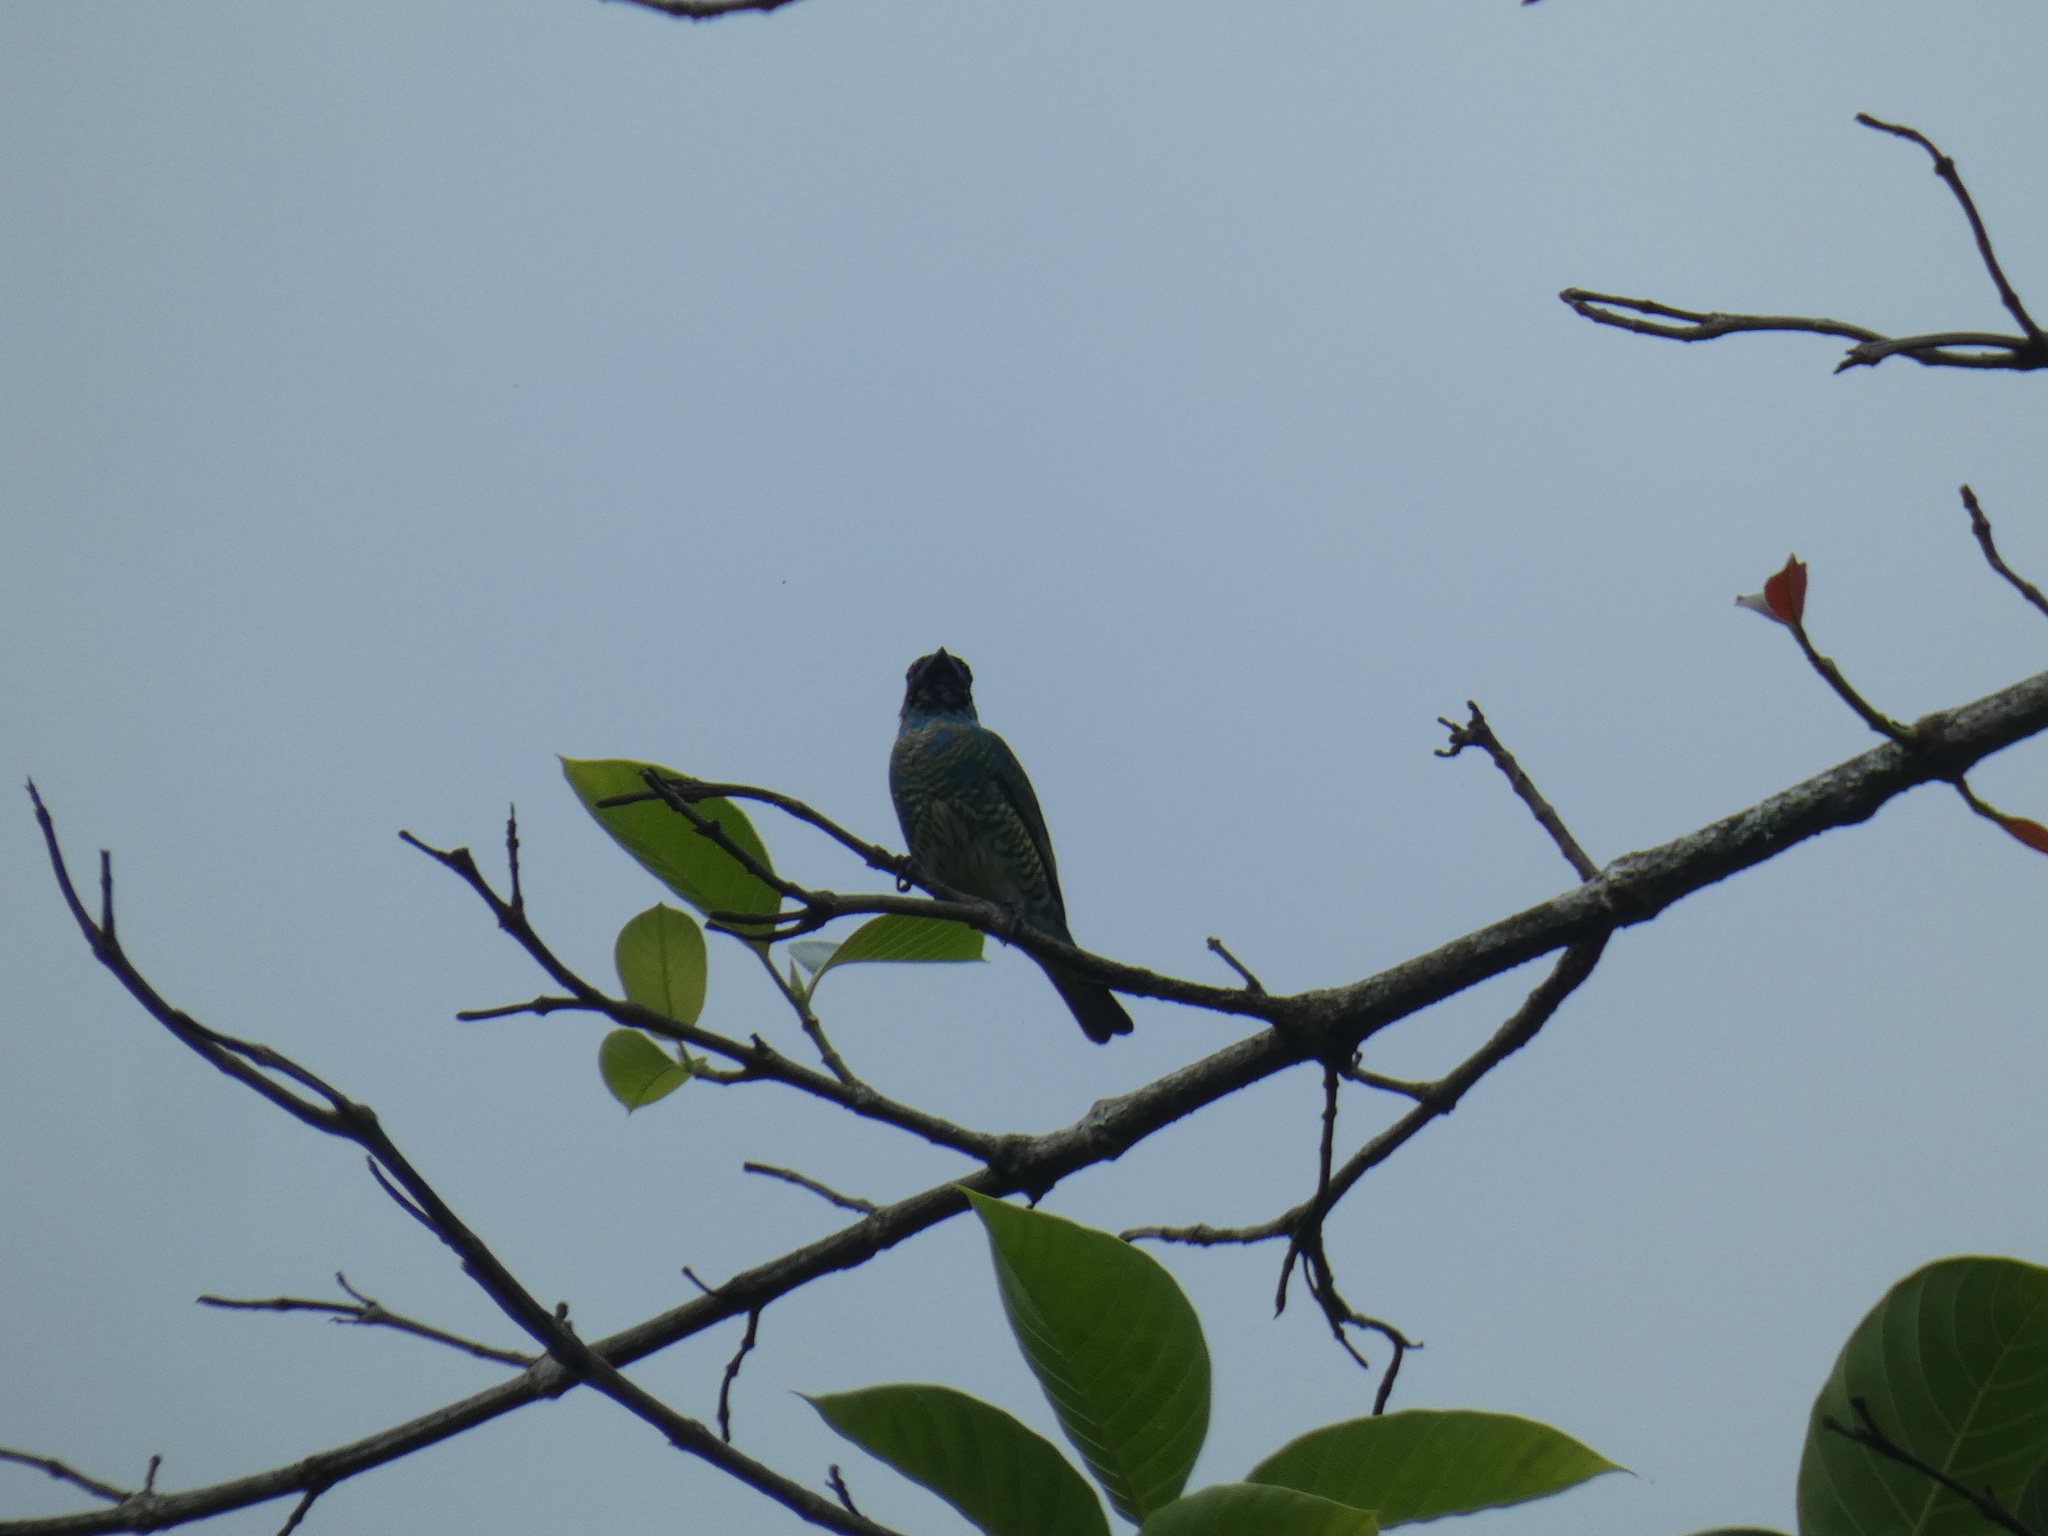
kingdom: Animalia
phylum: Chordata
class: Aves
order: Passeriformes
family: Thraupidae
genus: Tersina
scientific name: Tersina viridis
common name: Swallow tanager
